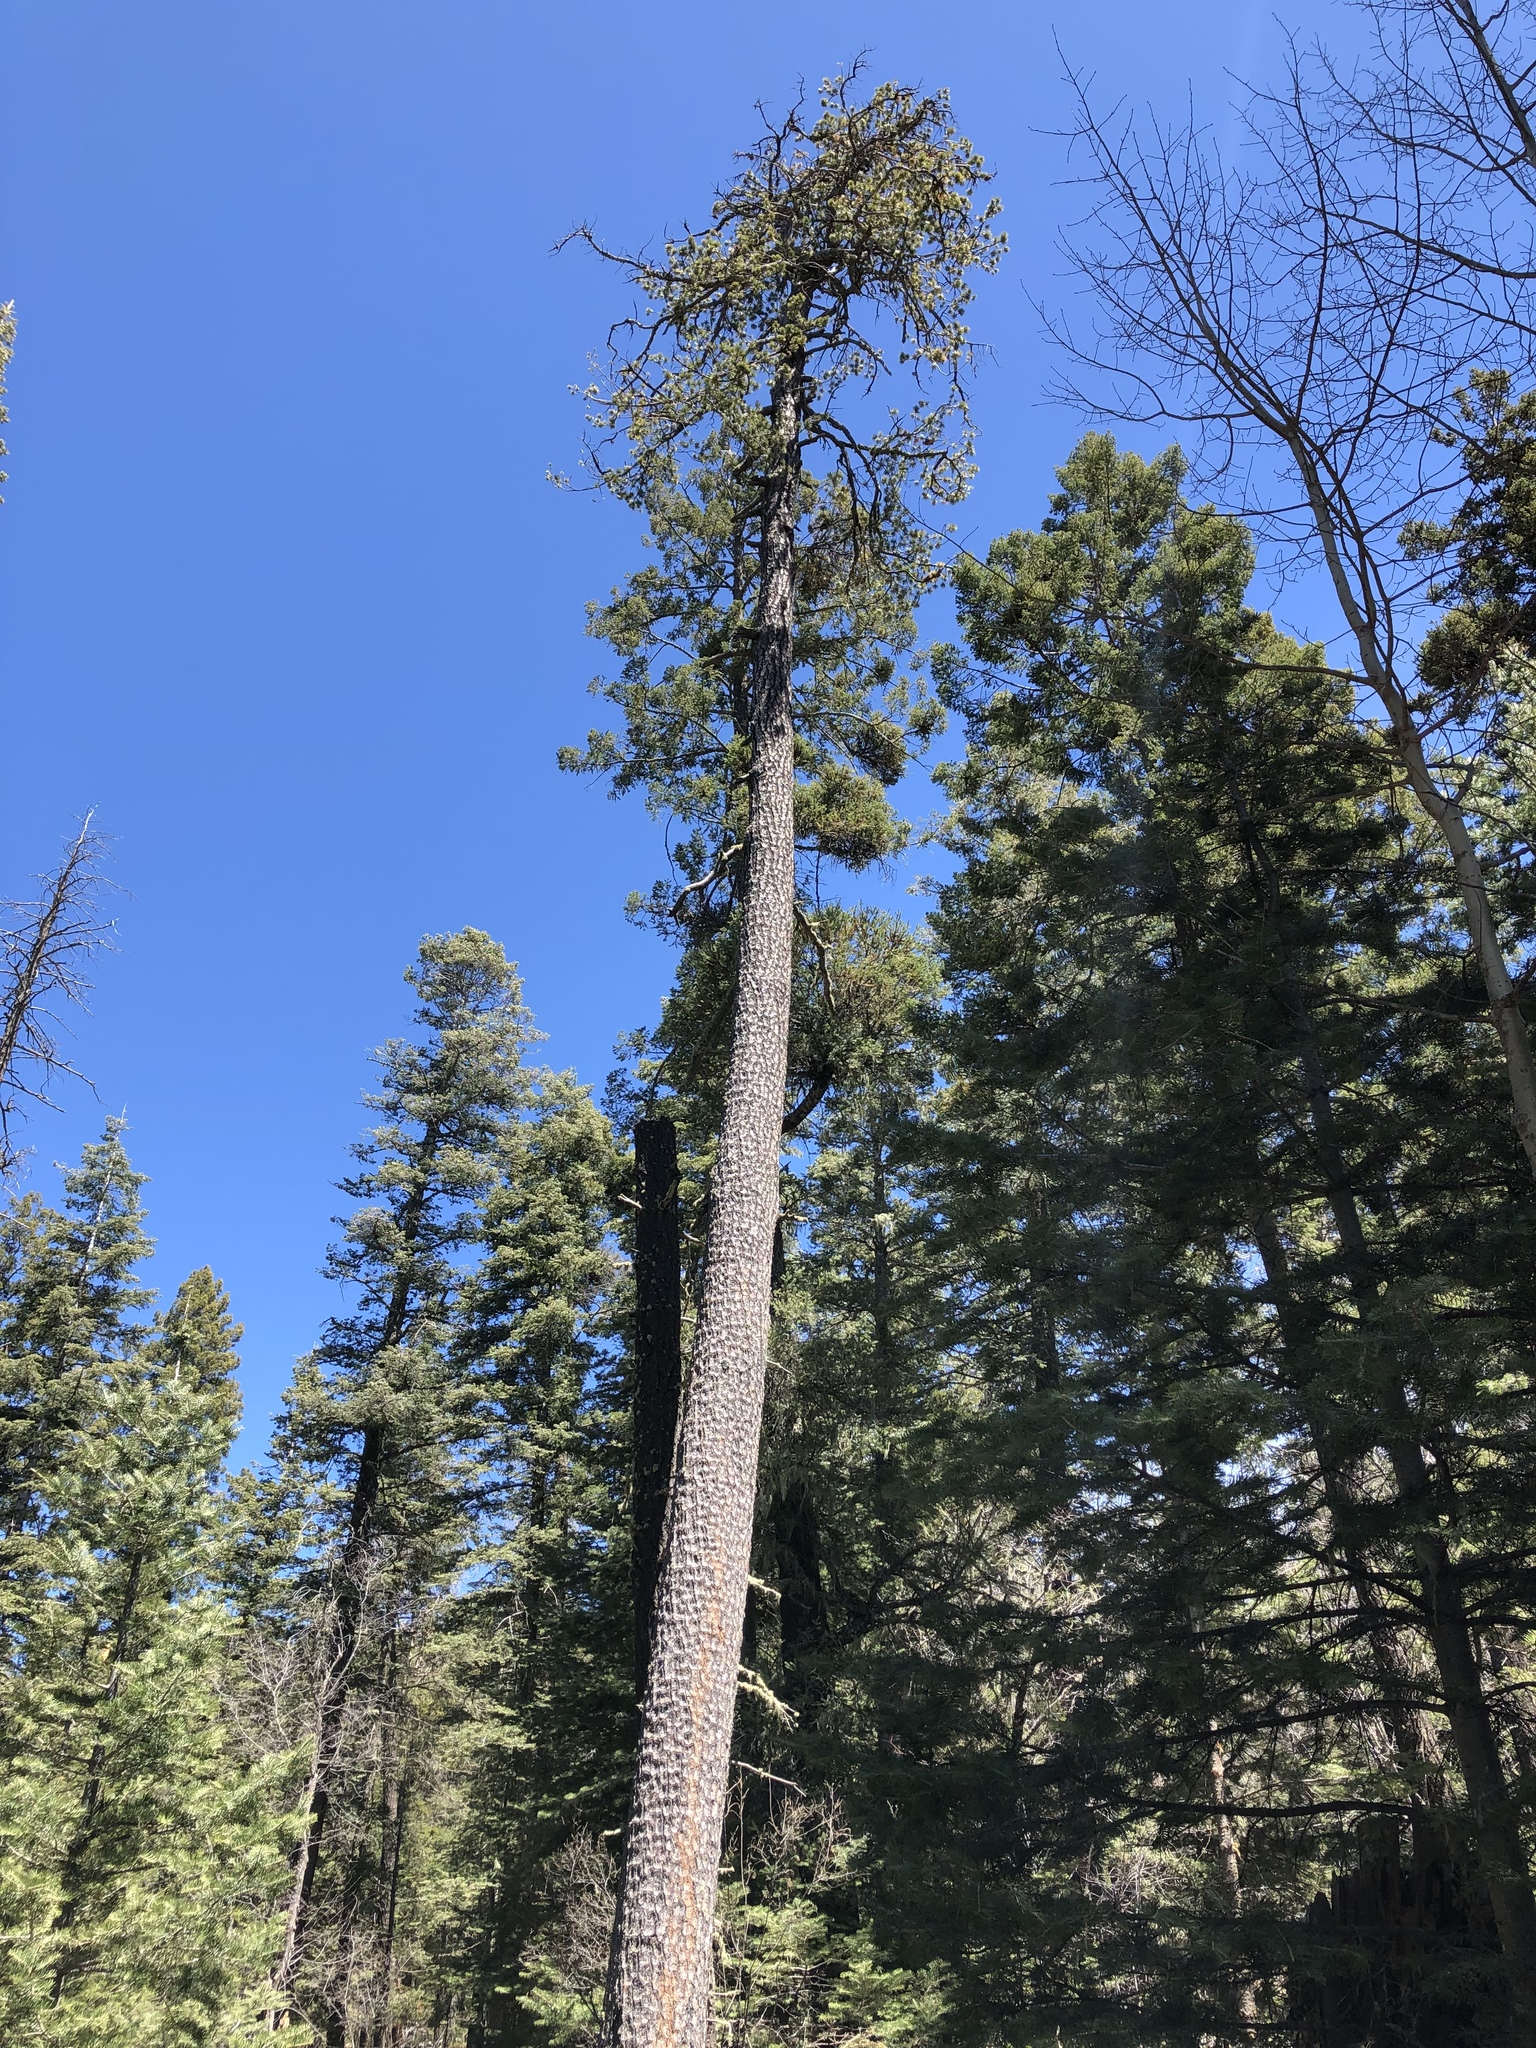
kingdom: Plantae
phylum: Tracheophyta
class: Pinopsida
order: Pinales
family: Pinaceae
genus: Pinus
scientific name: Pinus strobiformis
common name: Southwestern white pine
